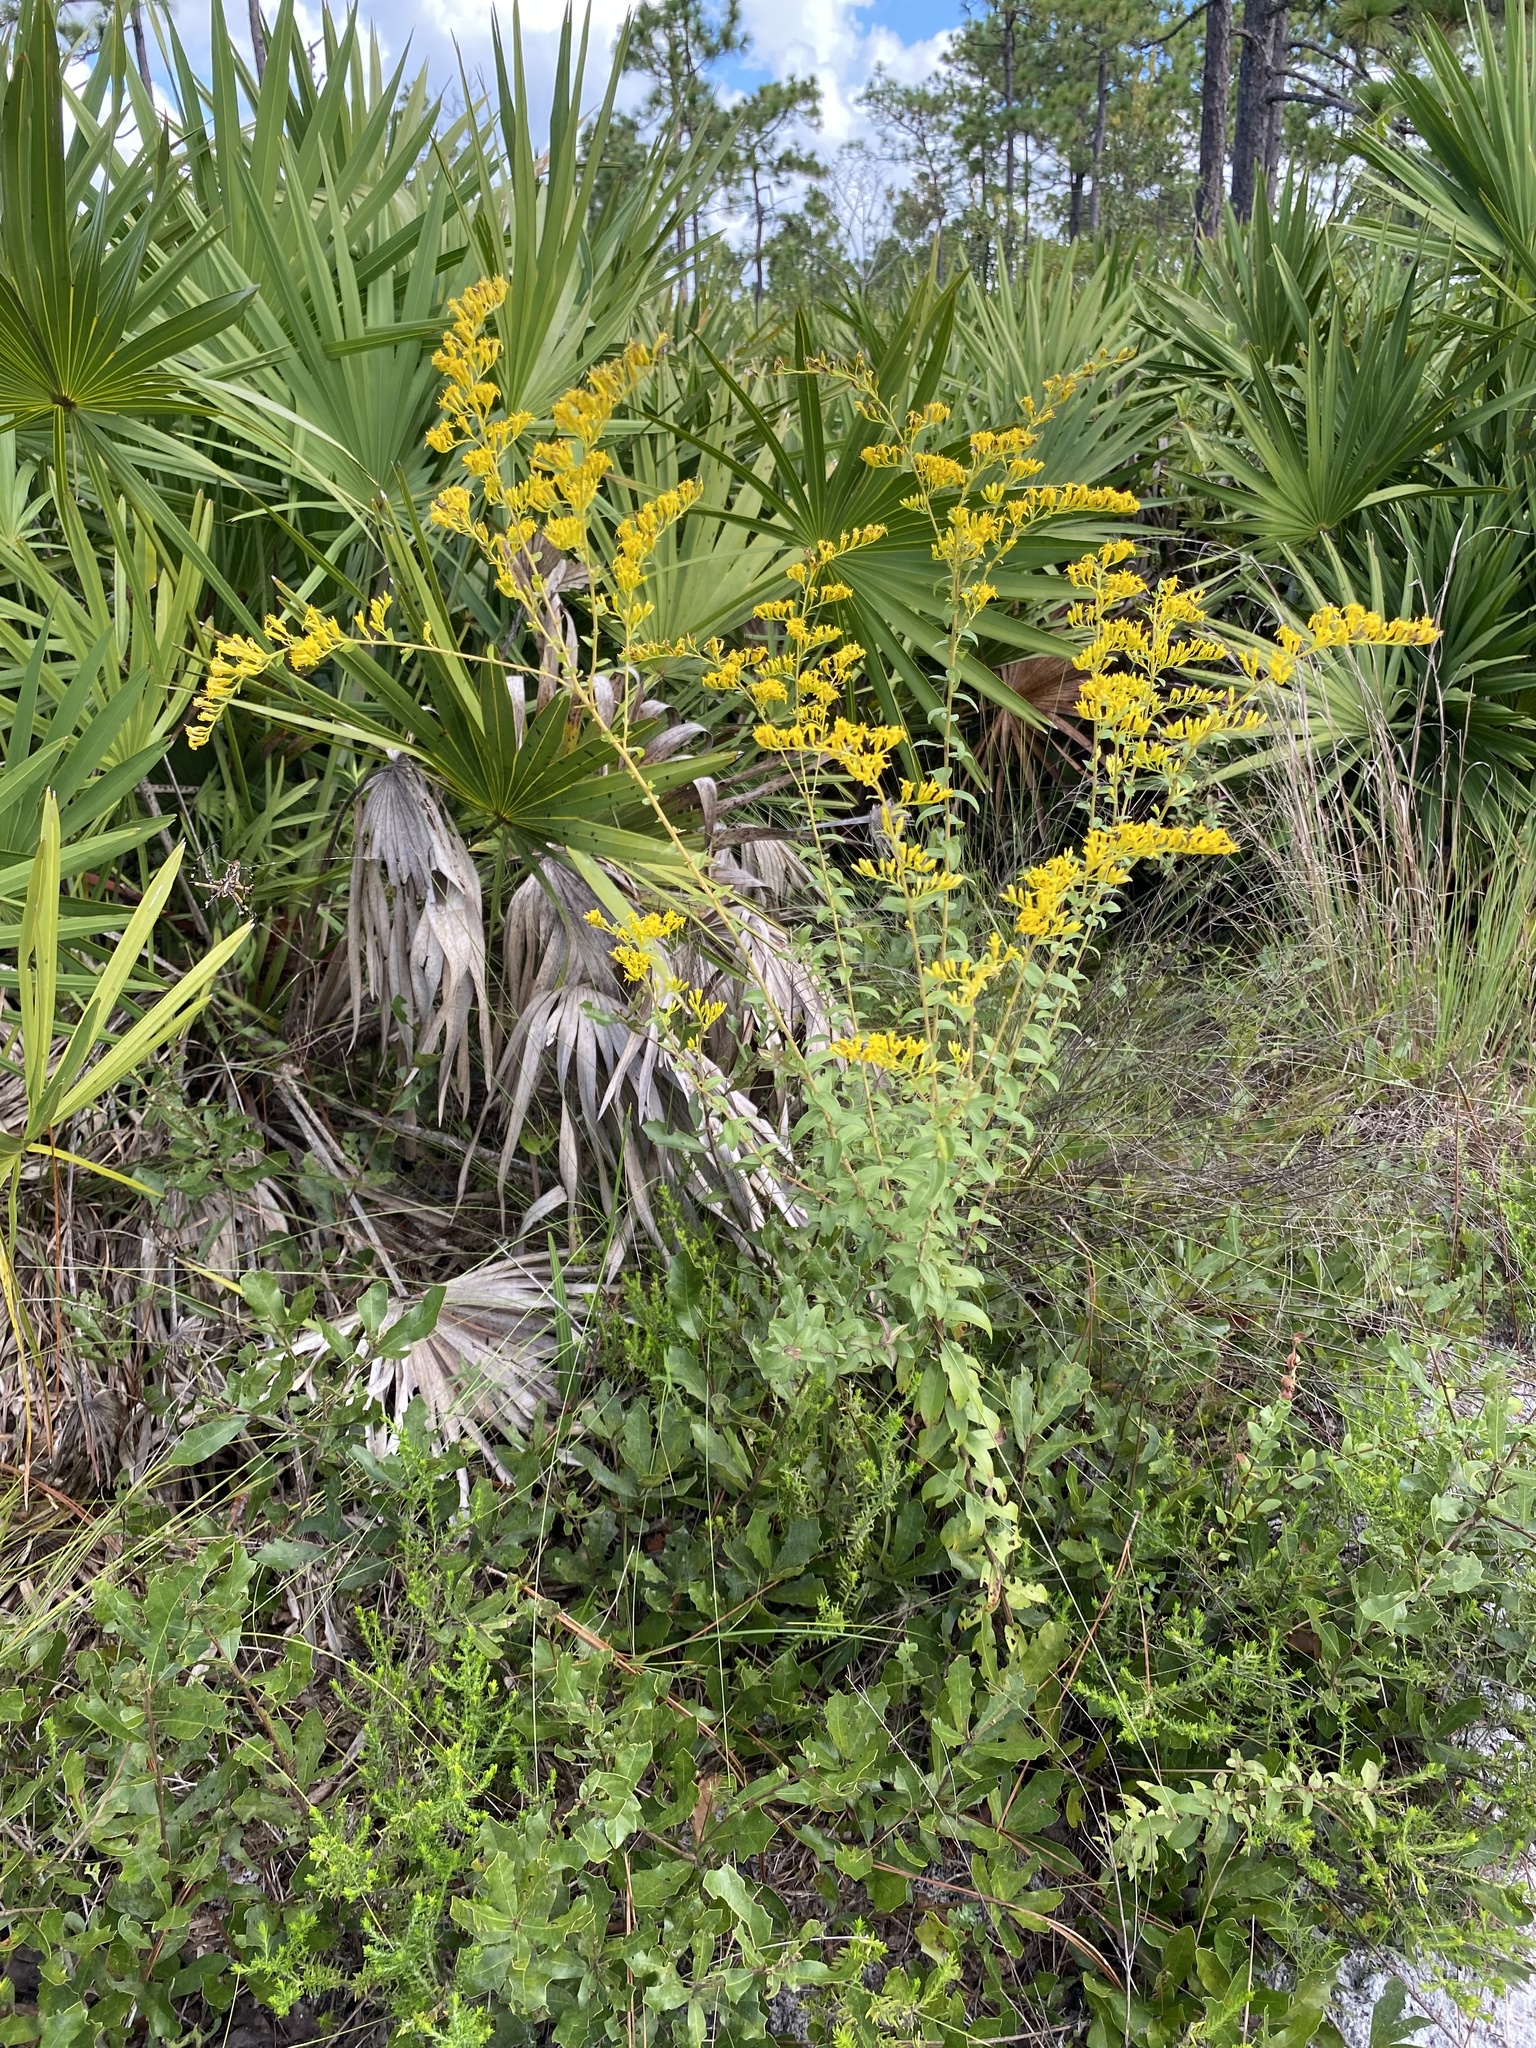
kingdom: Plantae
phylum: Tracheophyta
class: Magnoliopsida
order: Asterales
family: Asteraceae
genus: Solidago
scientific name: Solidago chapmanii
